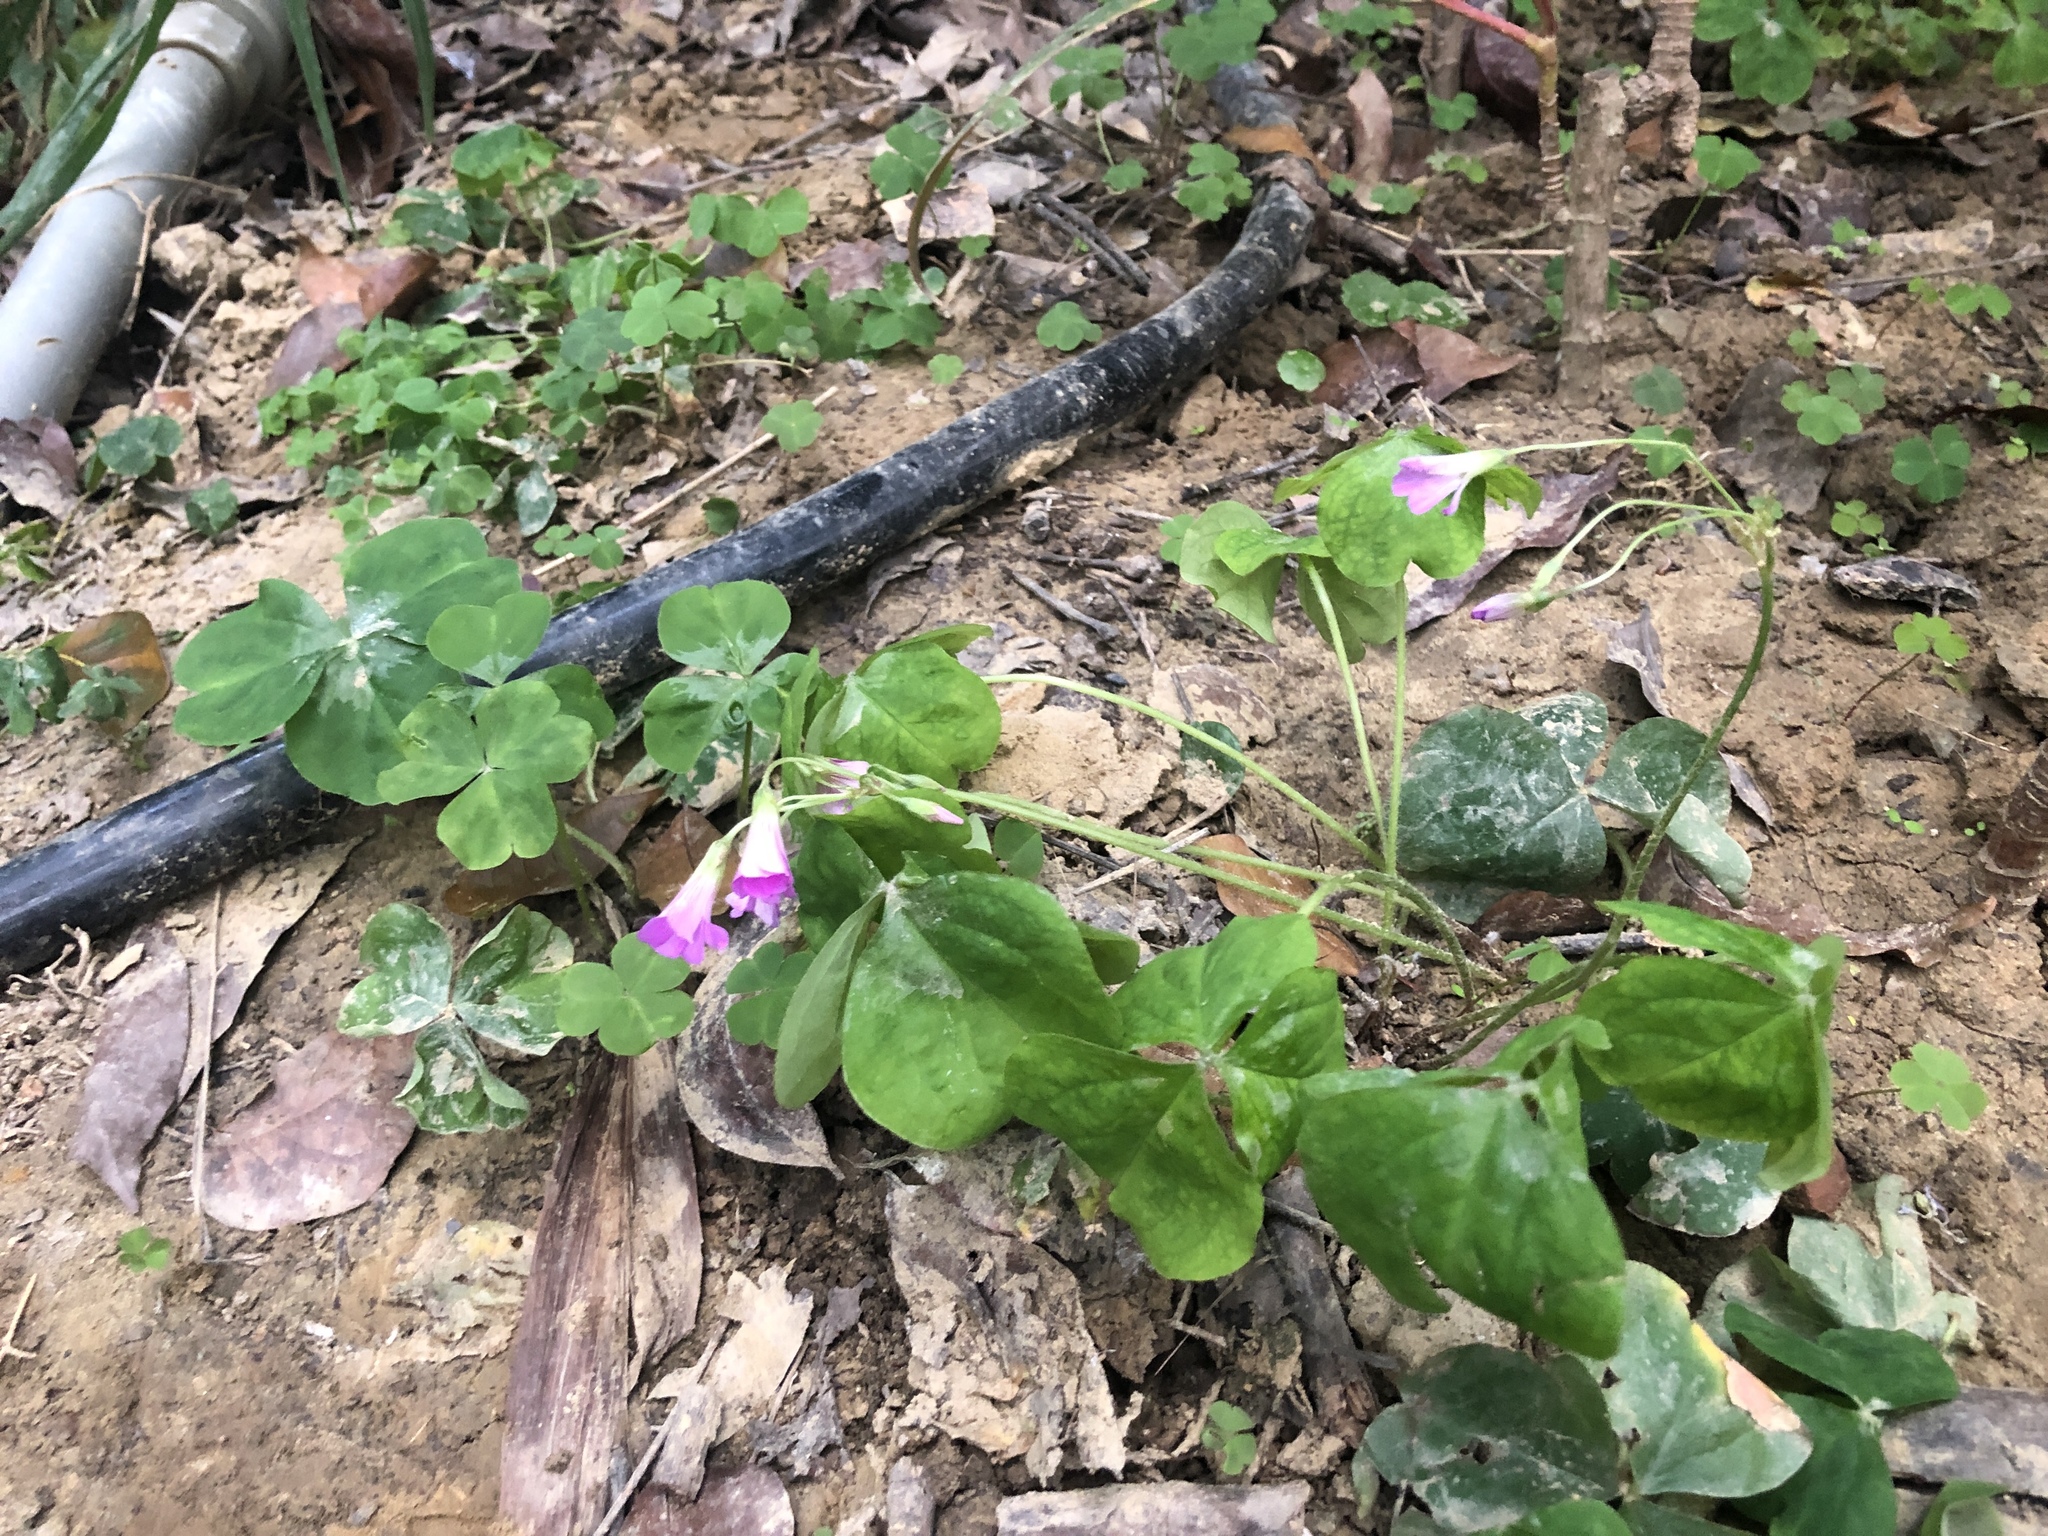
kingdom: Plantae
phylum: Tracheophyta
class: Magnoliopsida
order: Oxalidales
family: Oxalidaceae
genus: Oxalis
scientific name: Oxalis debilis
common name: Large-flowered pink-sorrel
